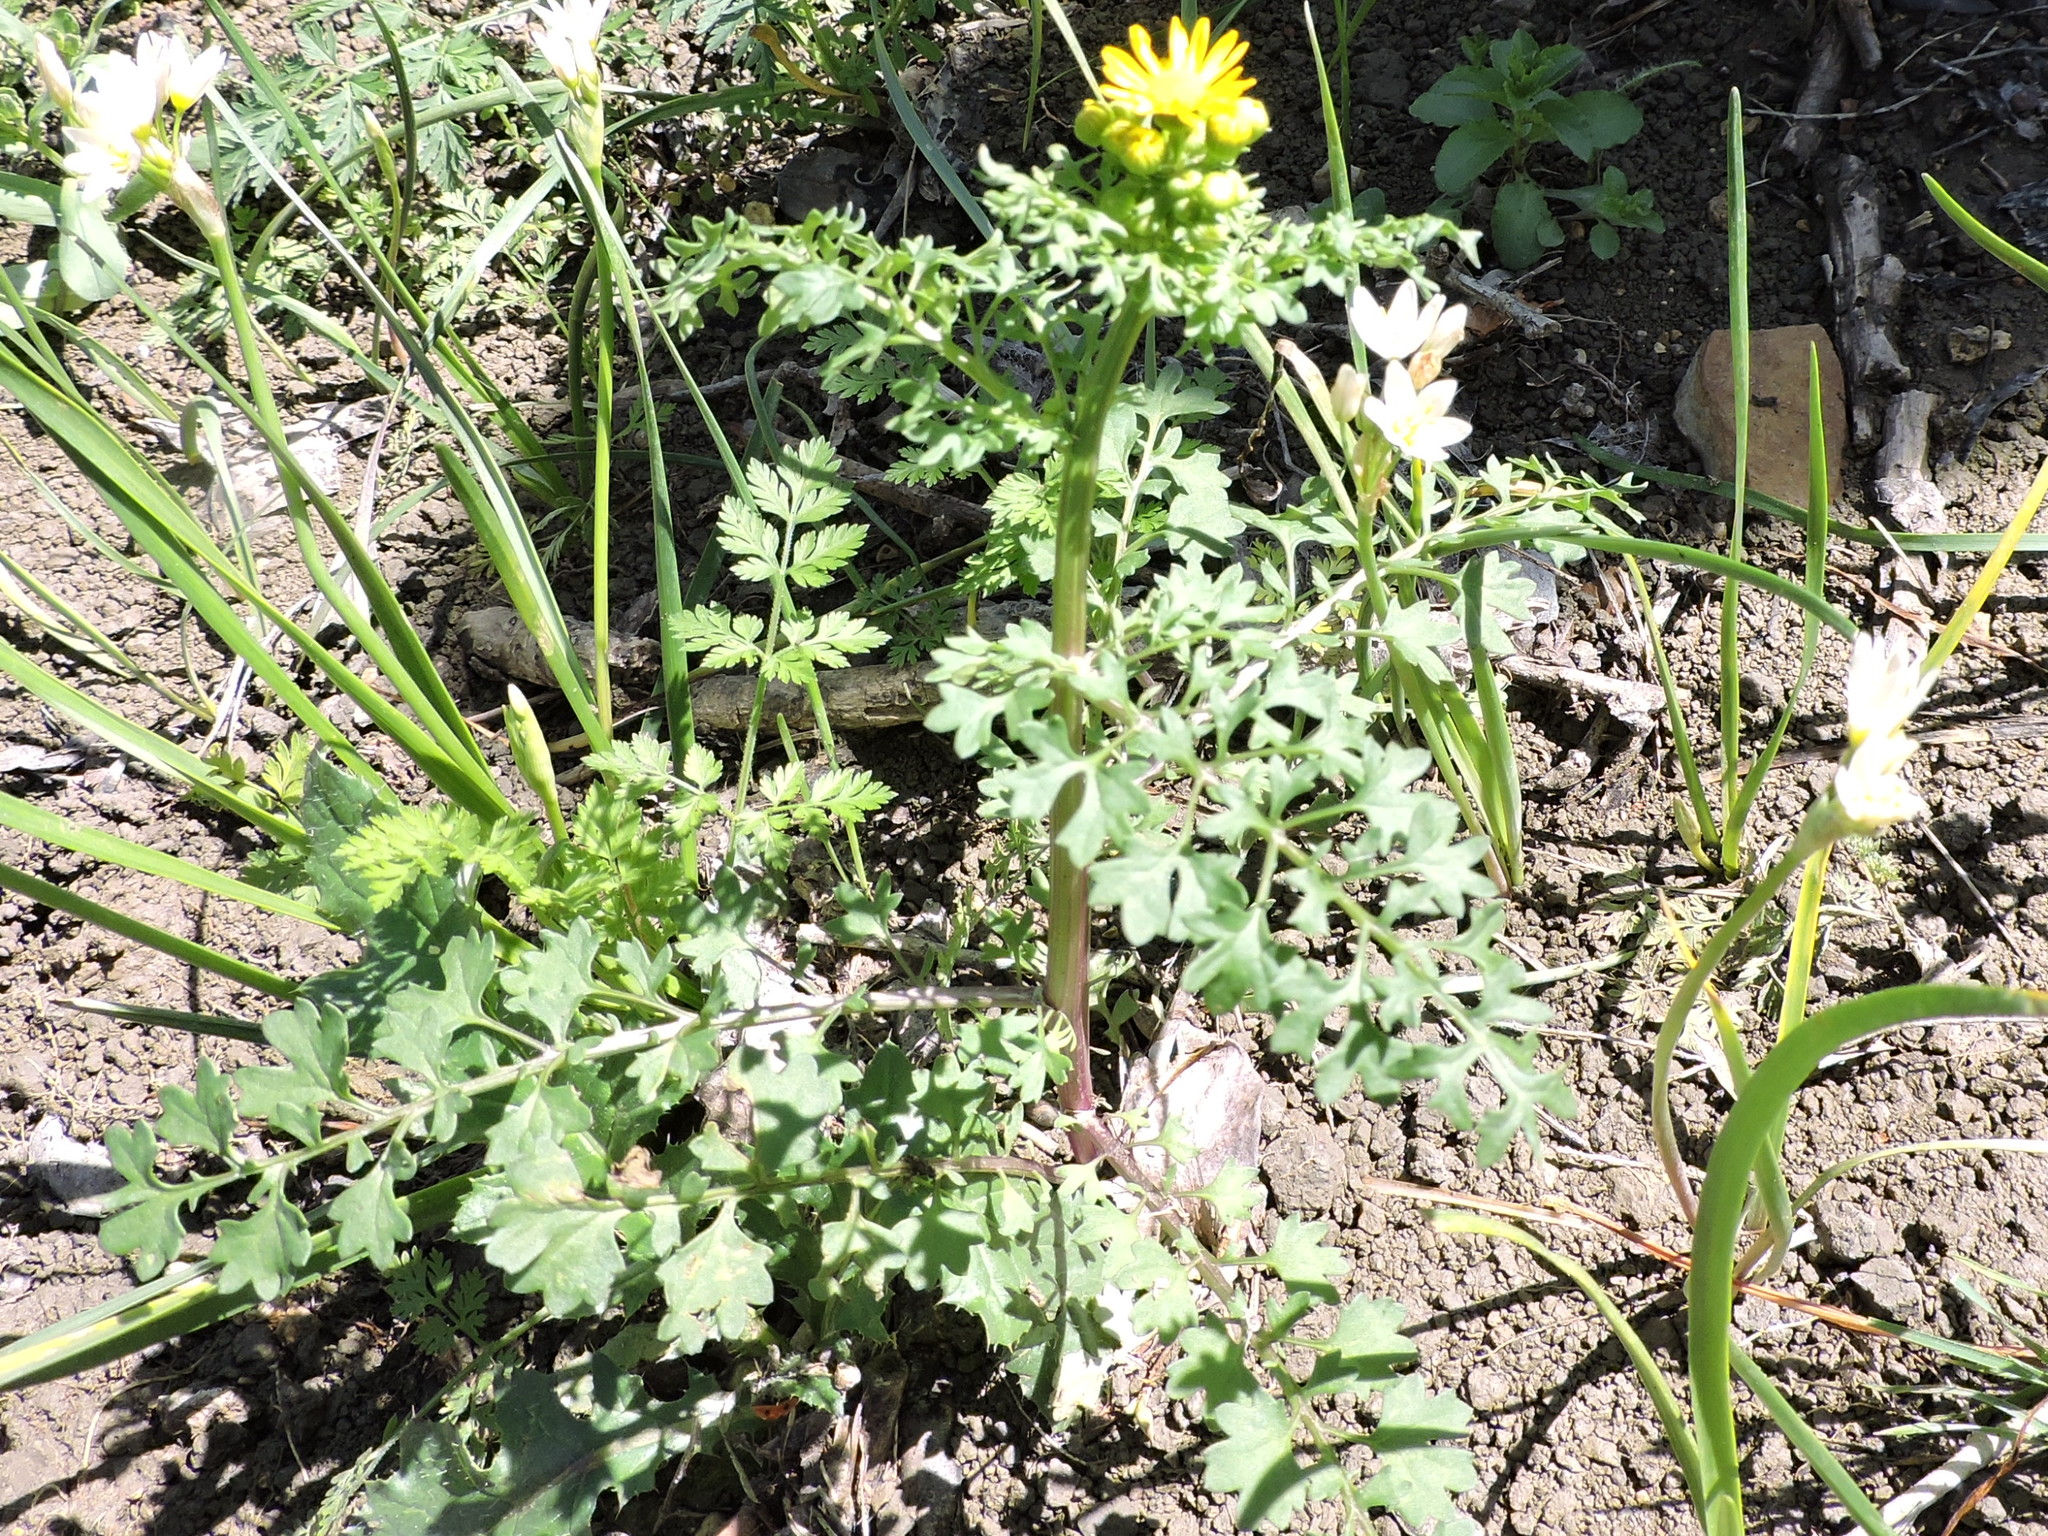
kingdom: Plantae
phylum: Tracheophyta
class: Magnoliopsida
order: Asterales
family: Asteraceae
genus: Packera
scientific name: Packera tampicana
